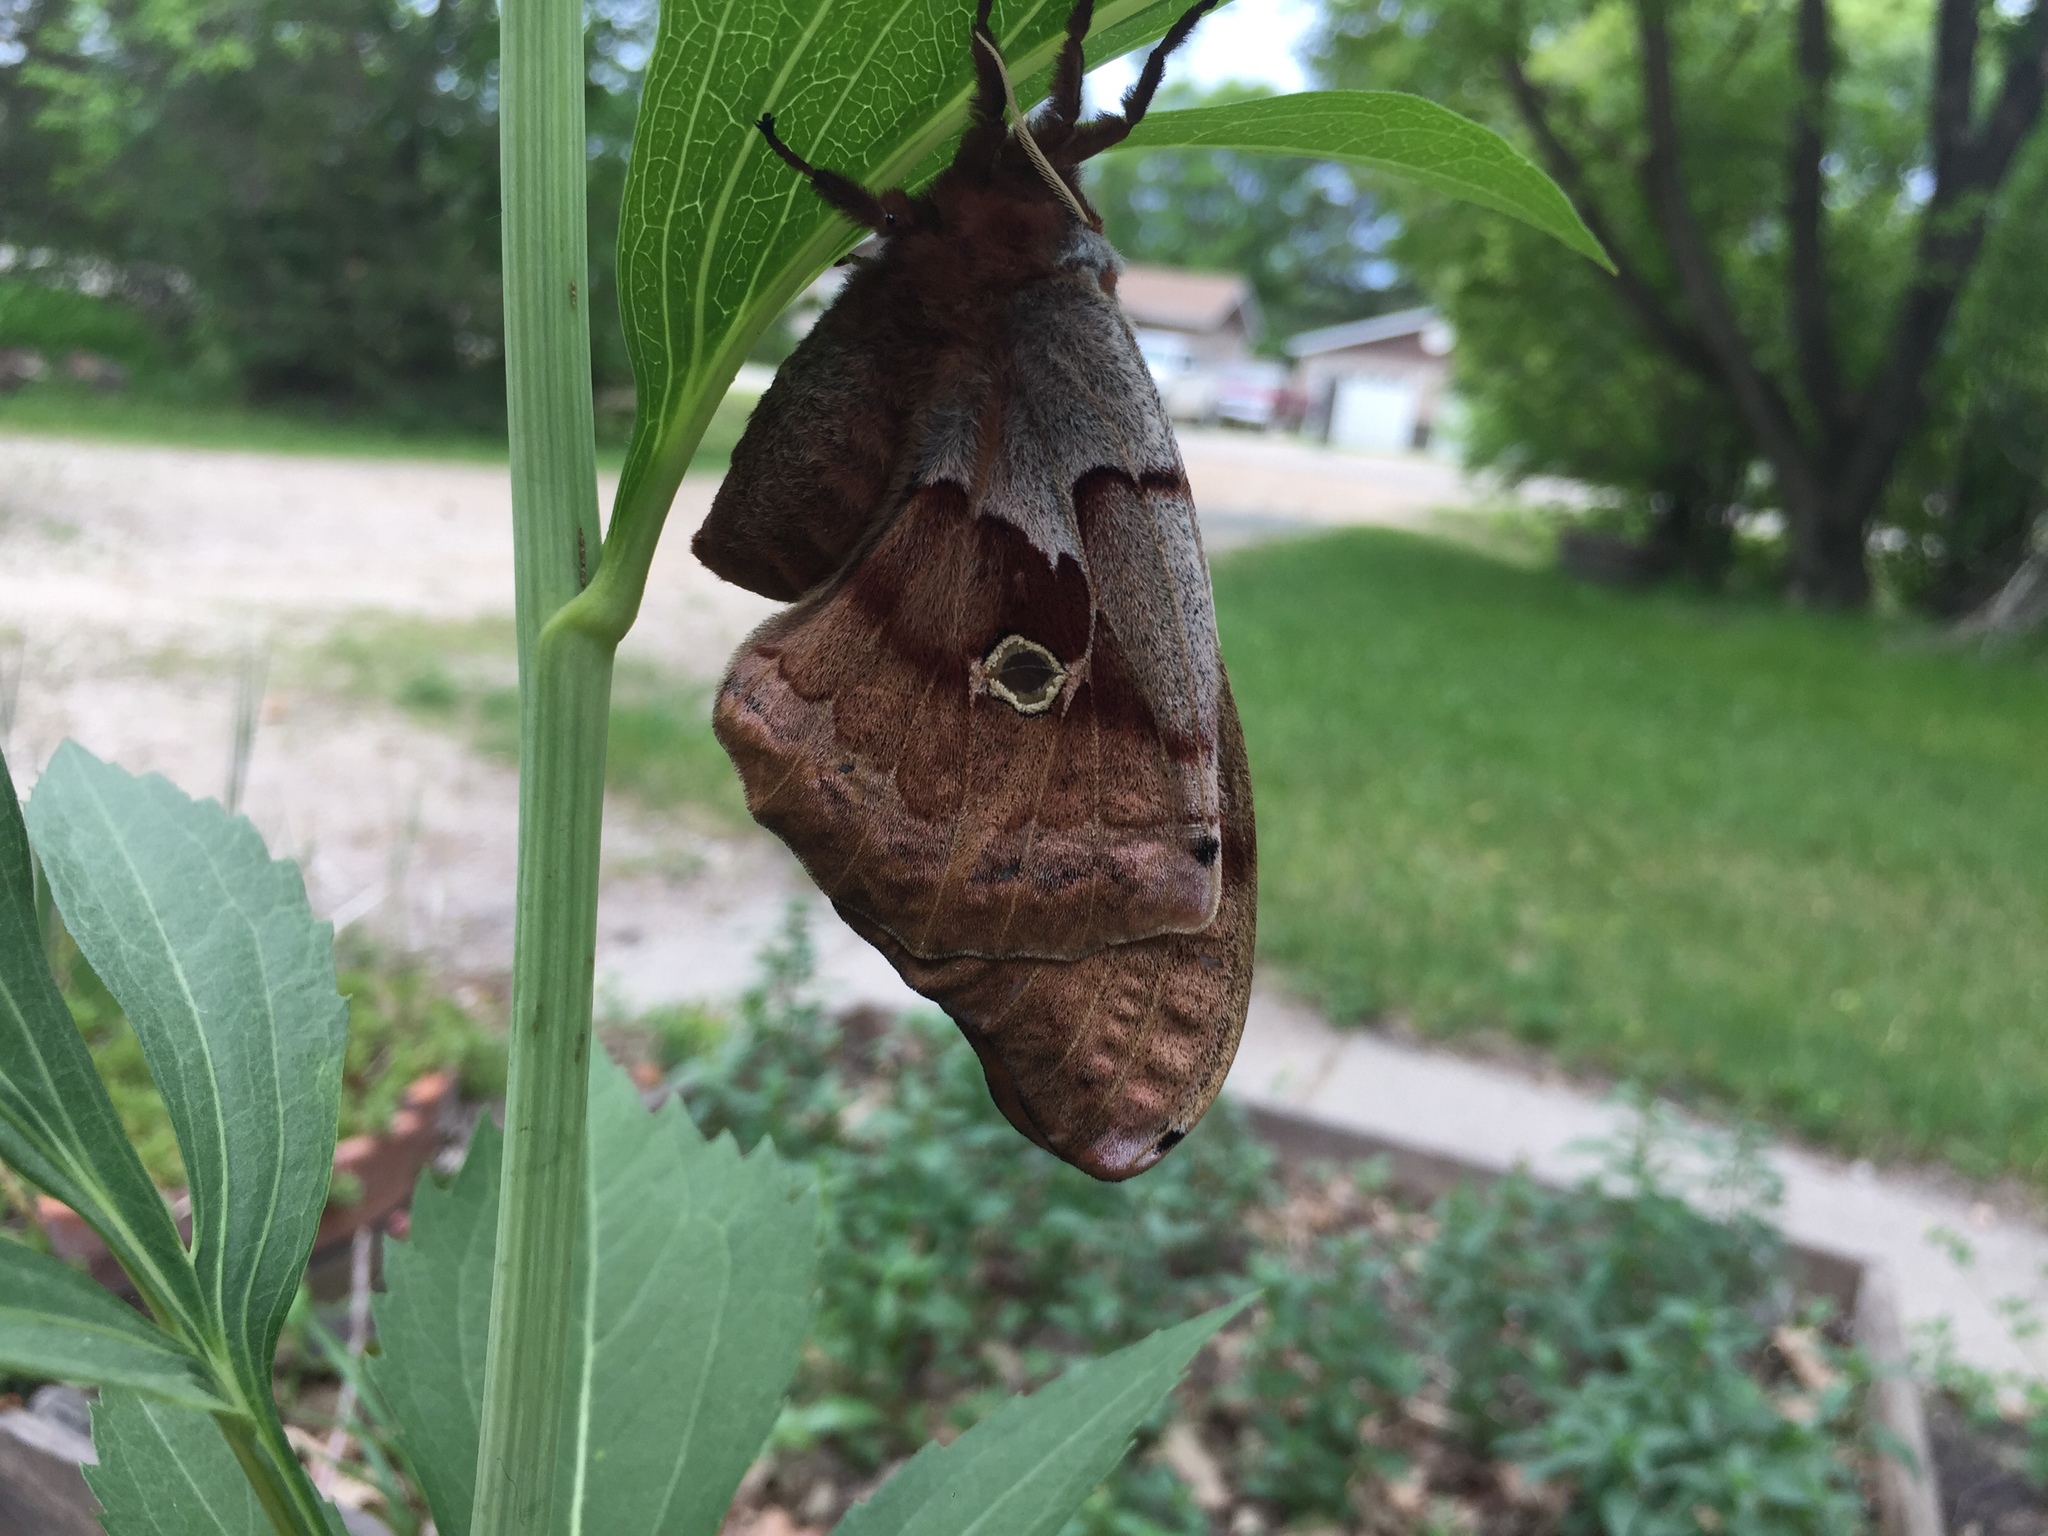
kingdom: Animalia
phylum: Arthropoda
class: Insecta
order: Lepidoptera
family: Saturniidae
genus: Antheraea
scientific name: Antheraea polyphemus
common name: Polyphemus moth
